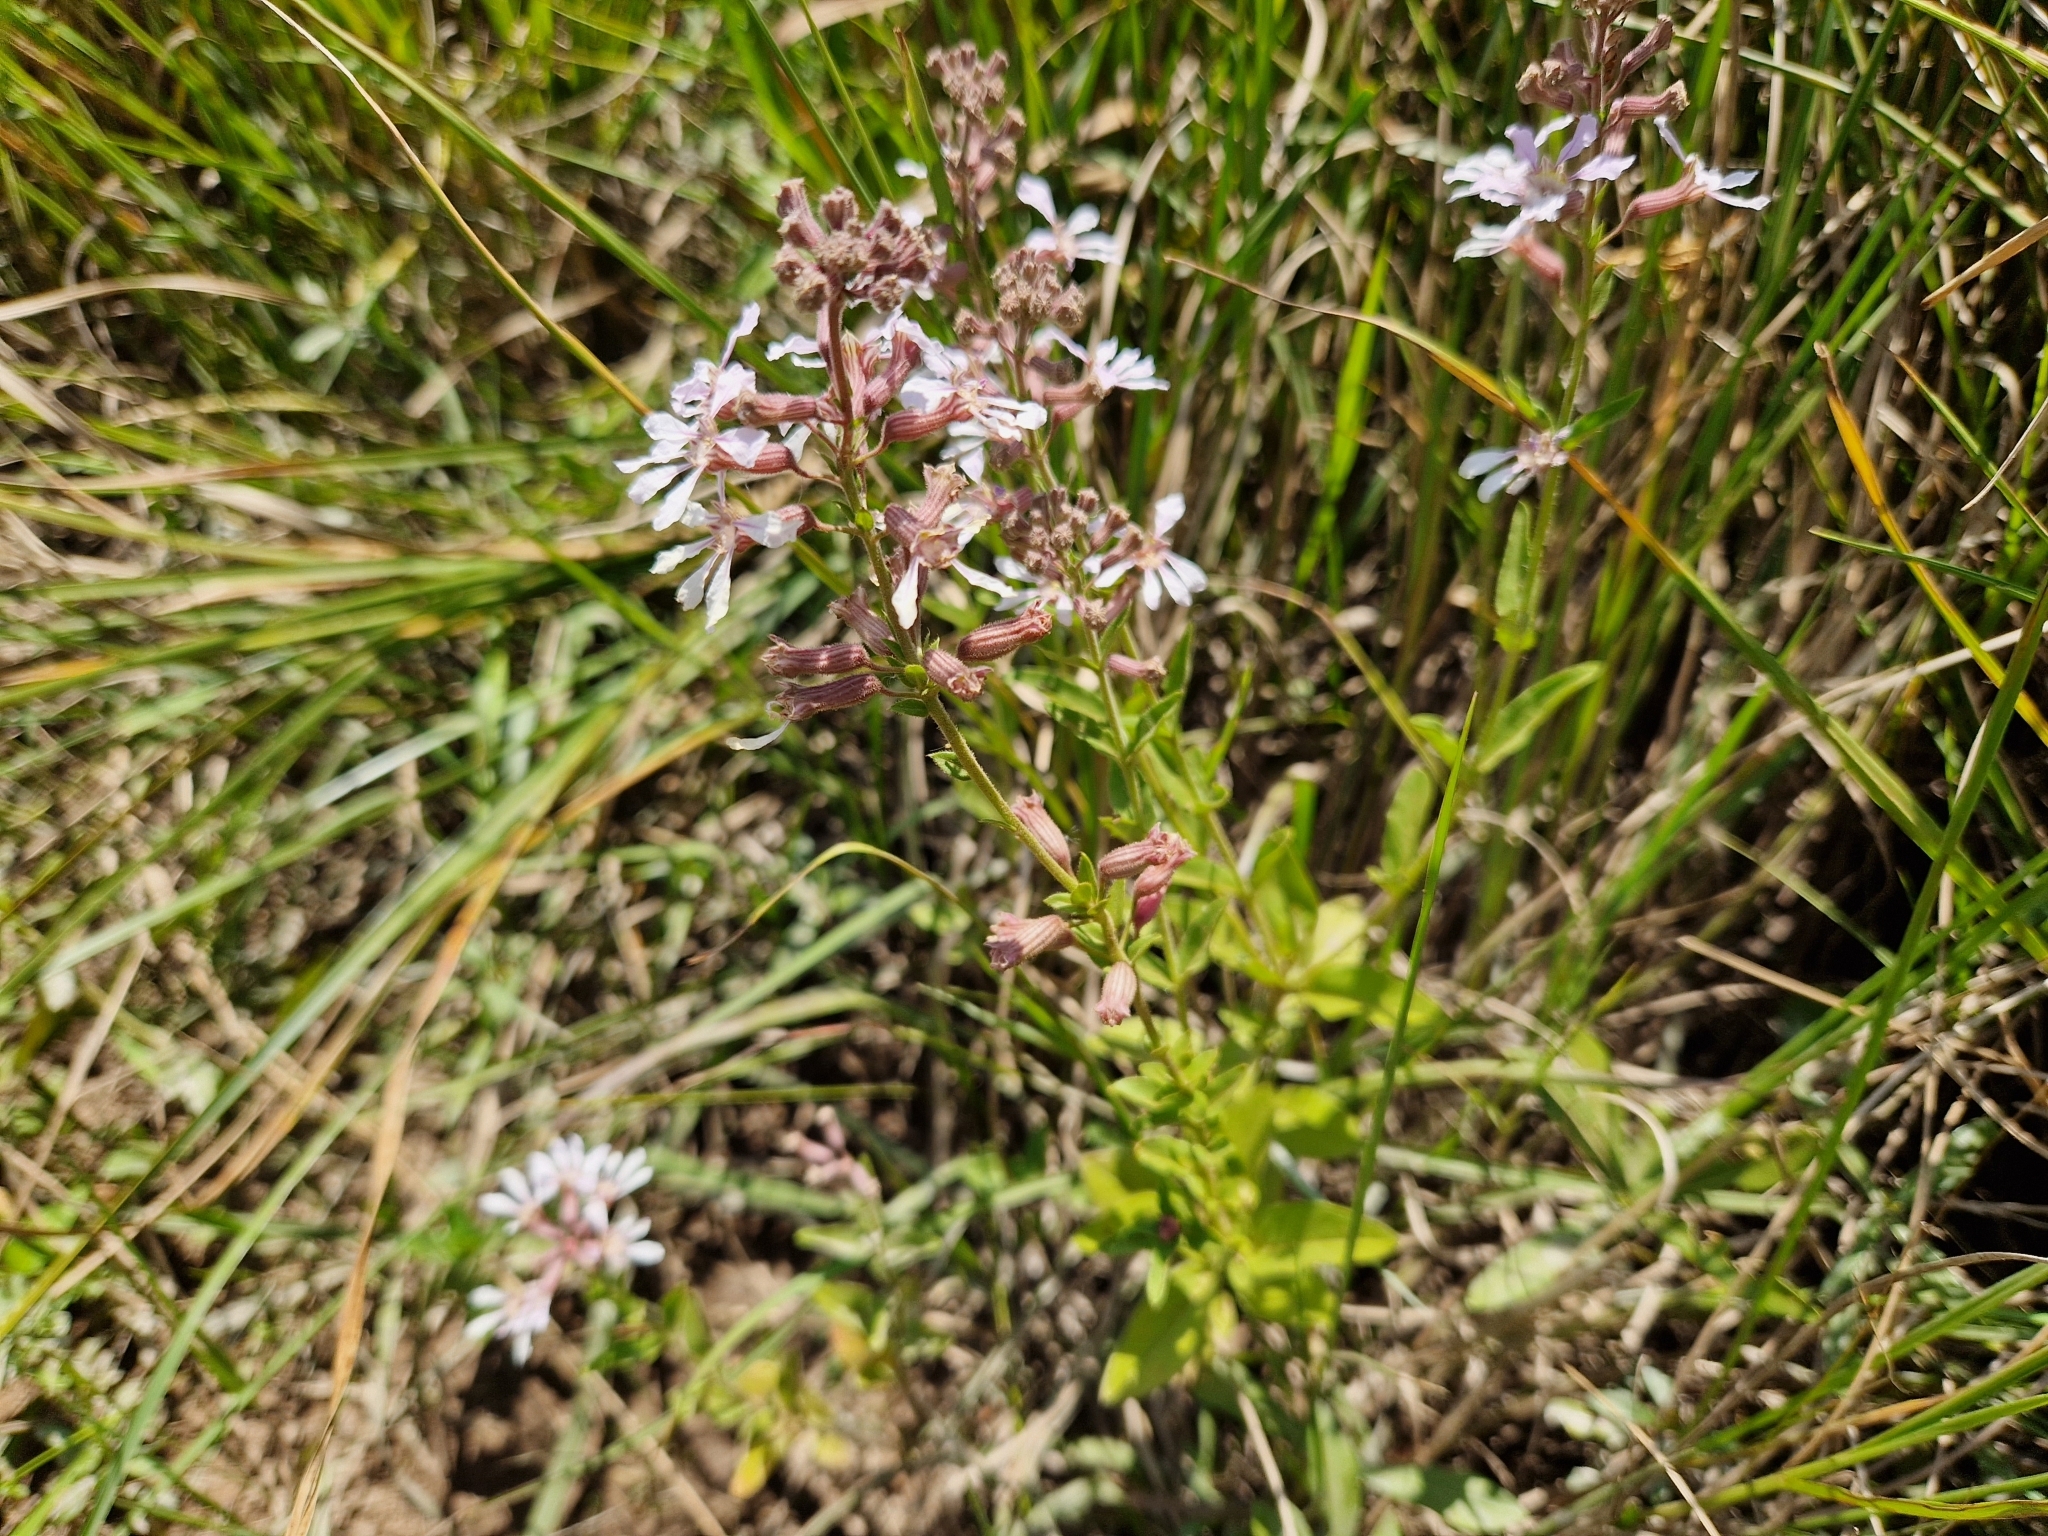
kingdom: Plantae
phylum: Tracheophyta
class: Magnoliopsida
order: Myrtales
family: Lythraceae
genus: Cuphea
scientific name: Cuphea racemosa
